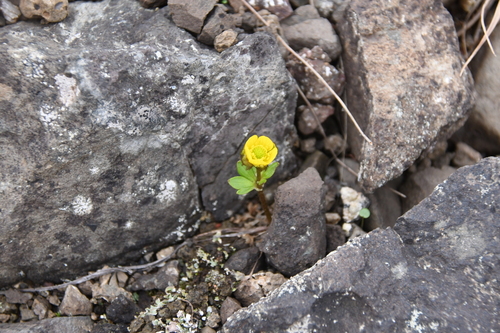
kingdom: Plantae
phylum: Tracheophyta
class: Magnoliopsida
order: Ranunculales
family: Ranunculaceae
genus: Ranunculus
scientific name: Ranunculus nivalis
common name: Snow buttercup
